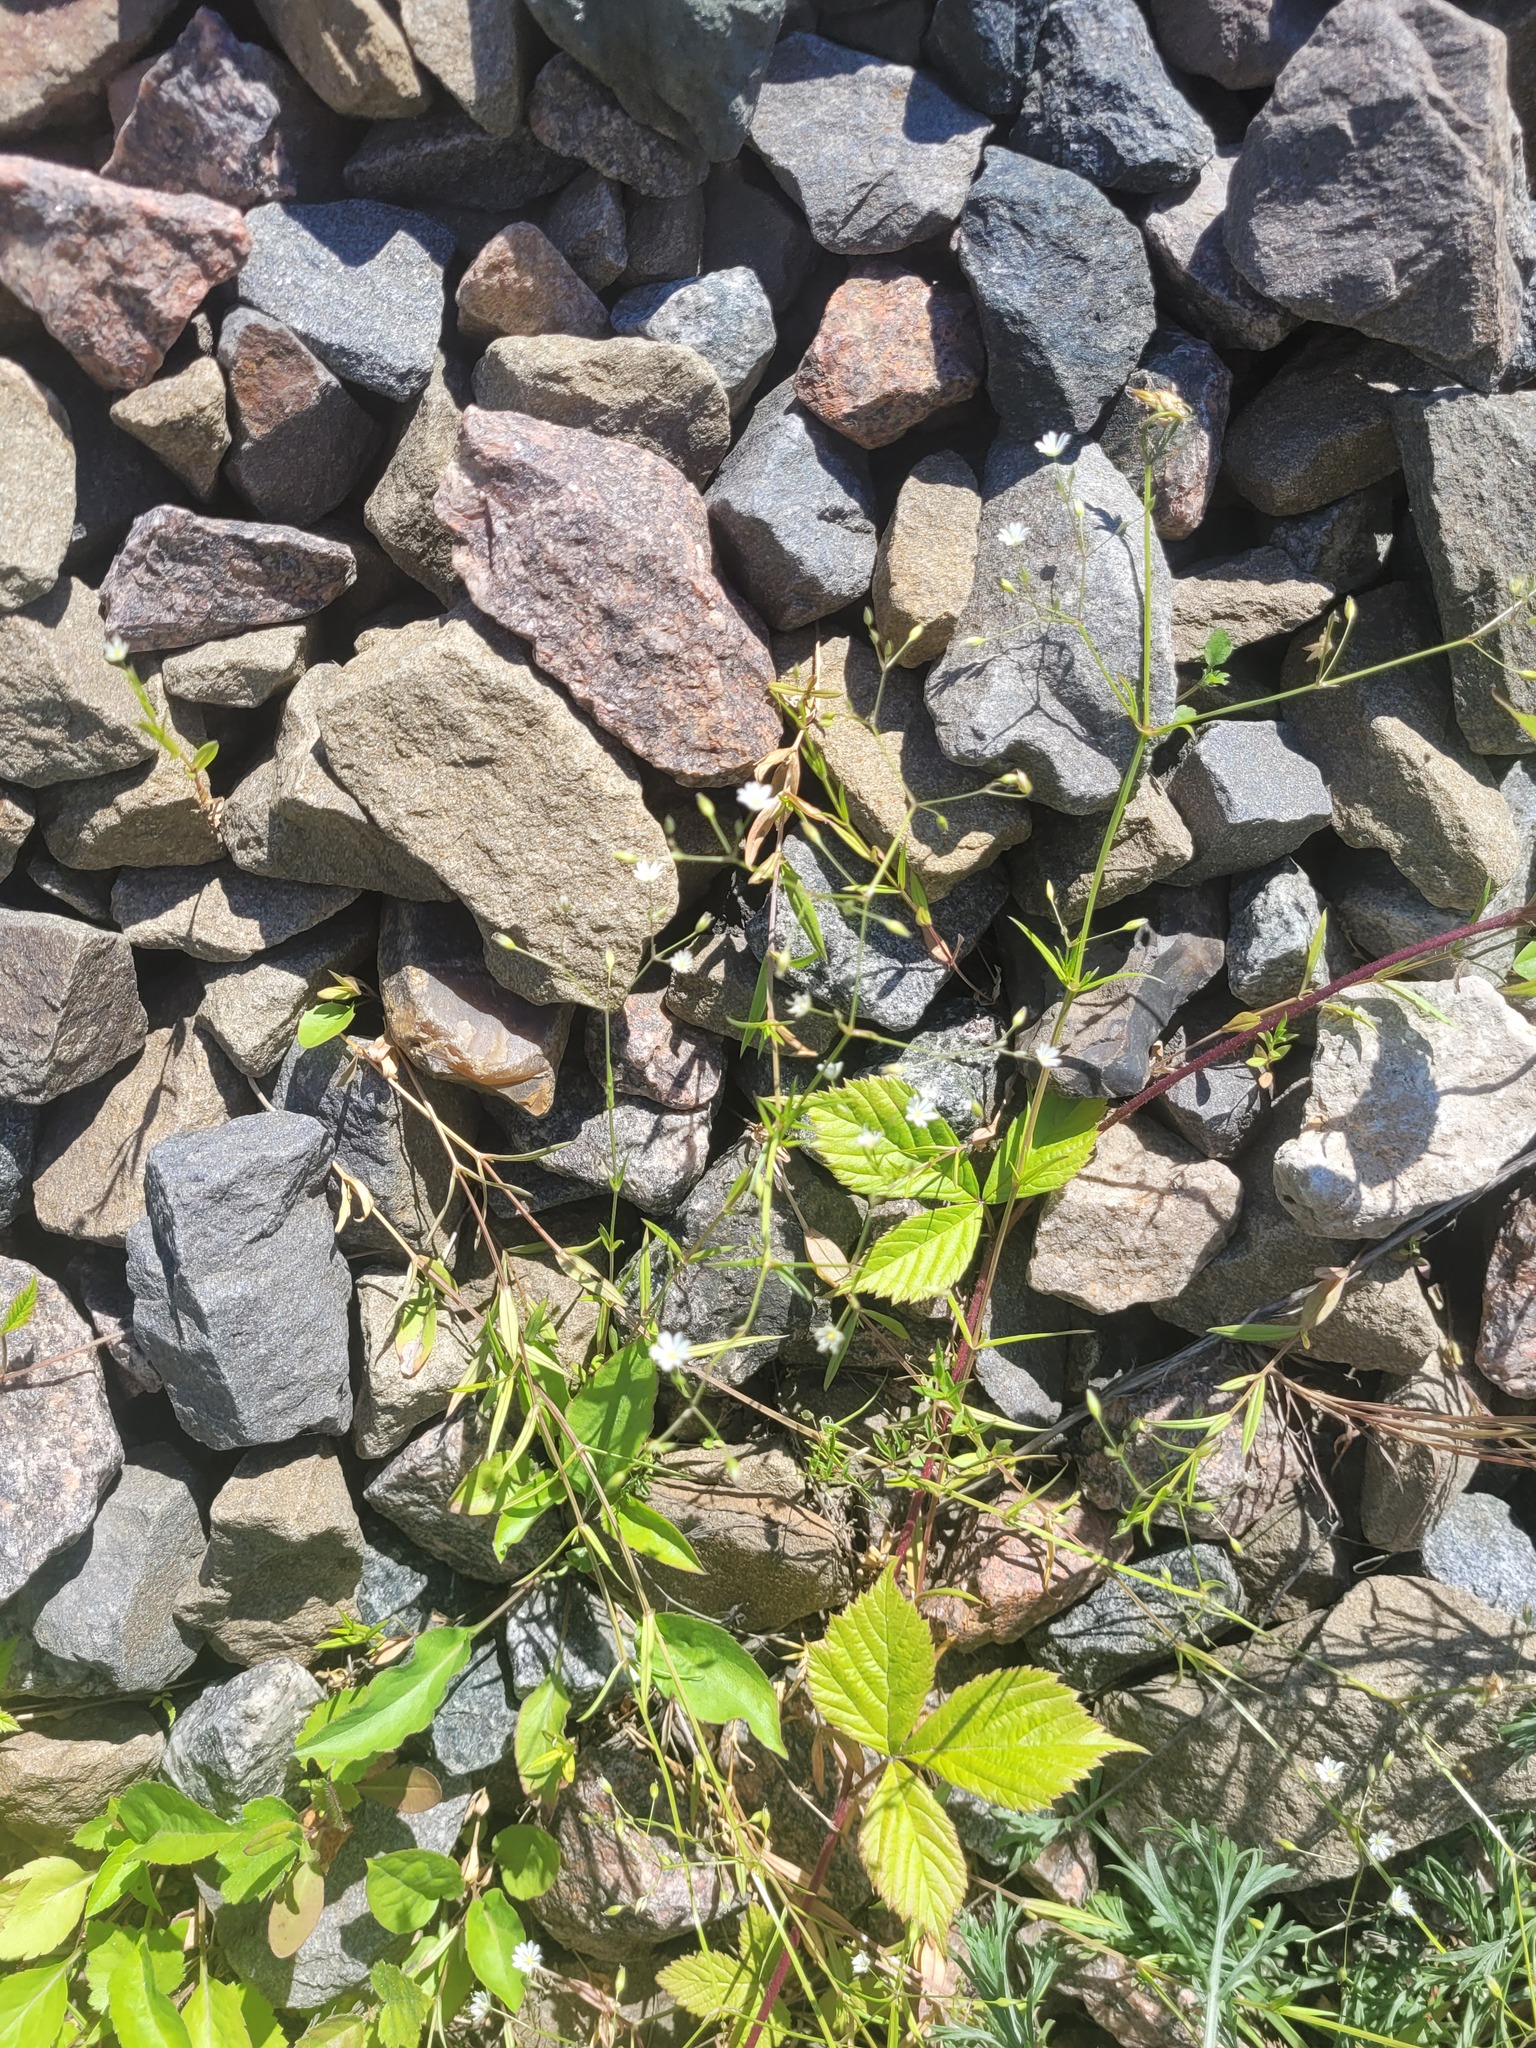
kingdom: Plantae
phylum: Tracheophyta
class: Magnoliopsida
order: Caryophyllales
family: Caryophyllaceae
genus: Stellaria
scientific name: Stellaria graminea
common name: Grass-like starwort
